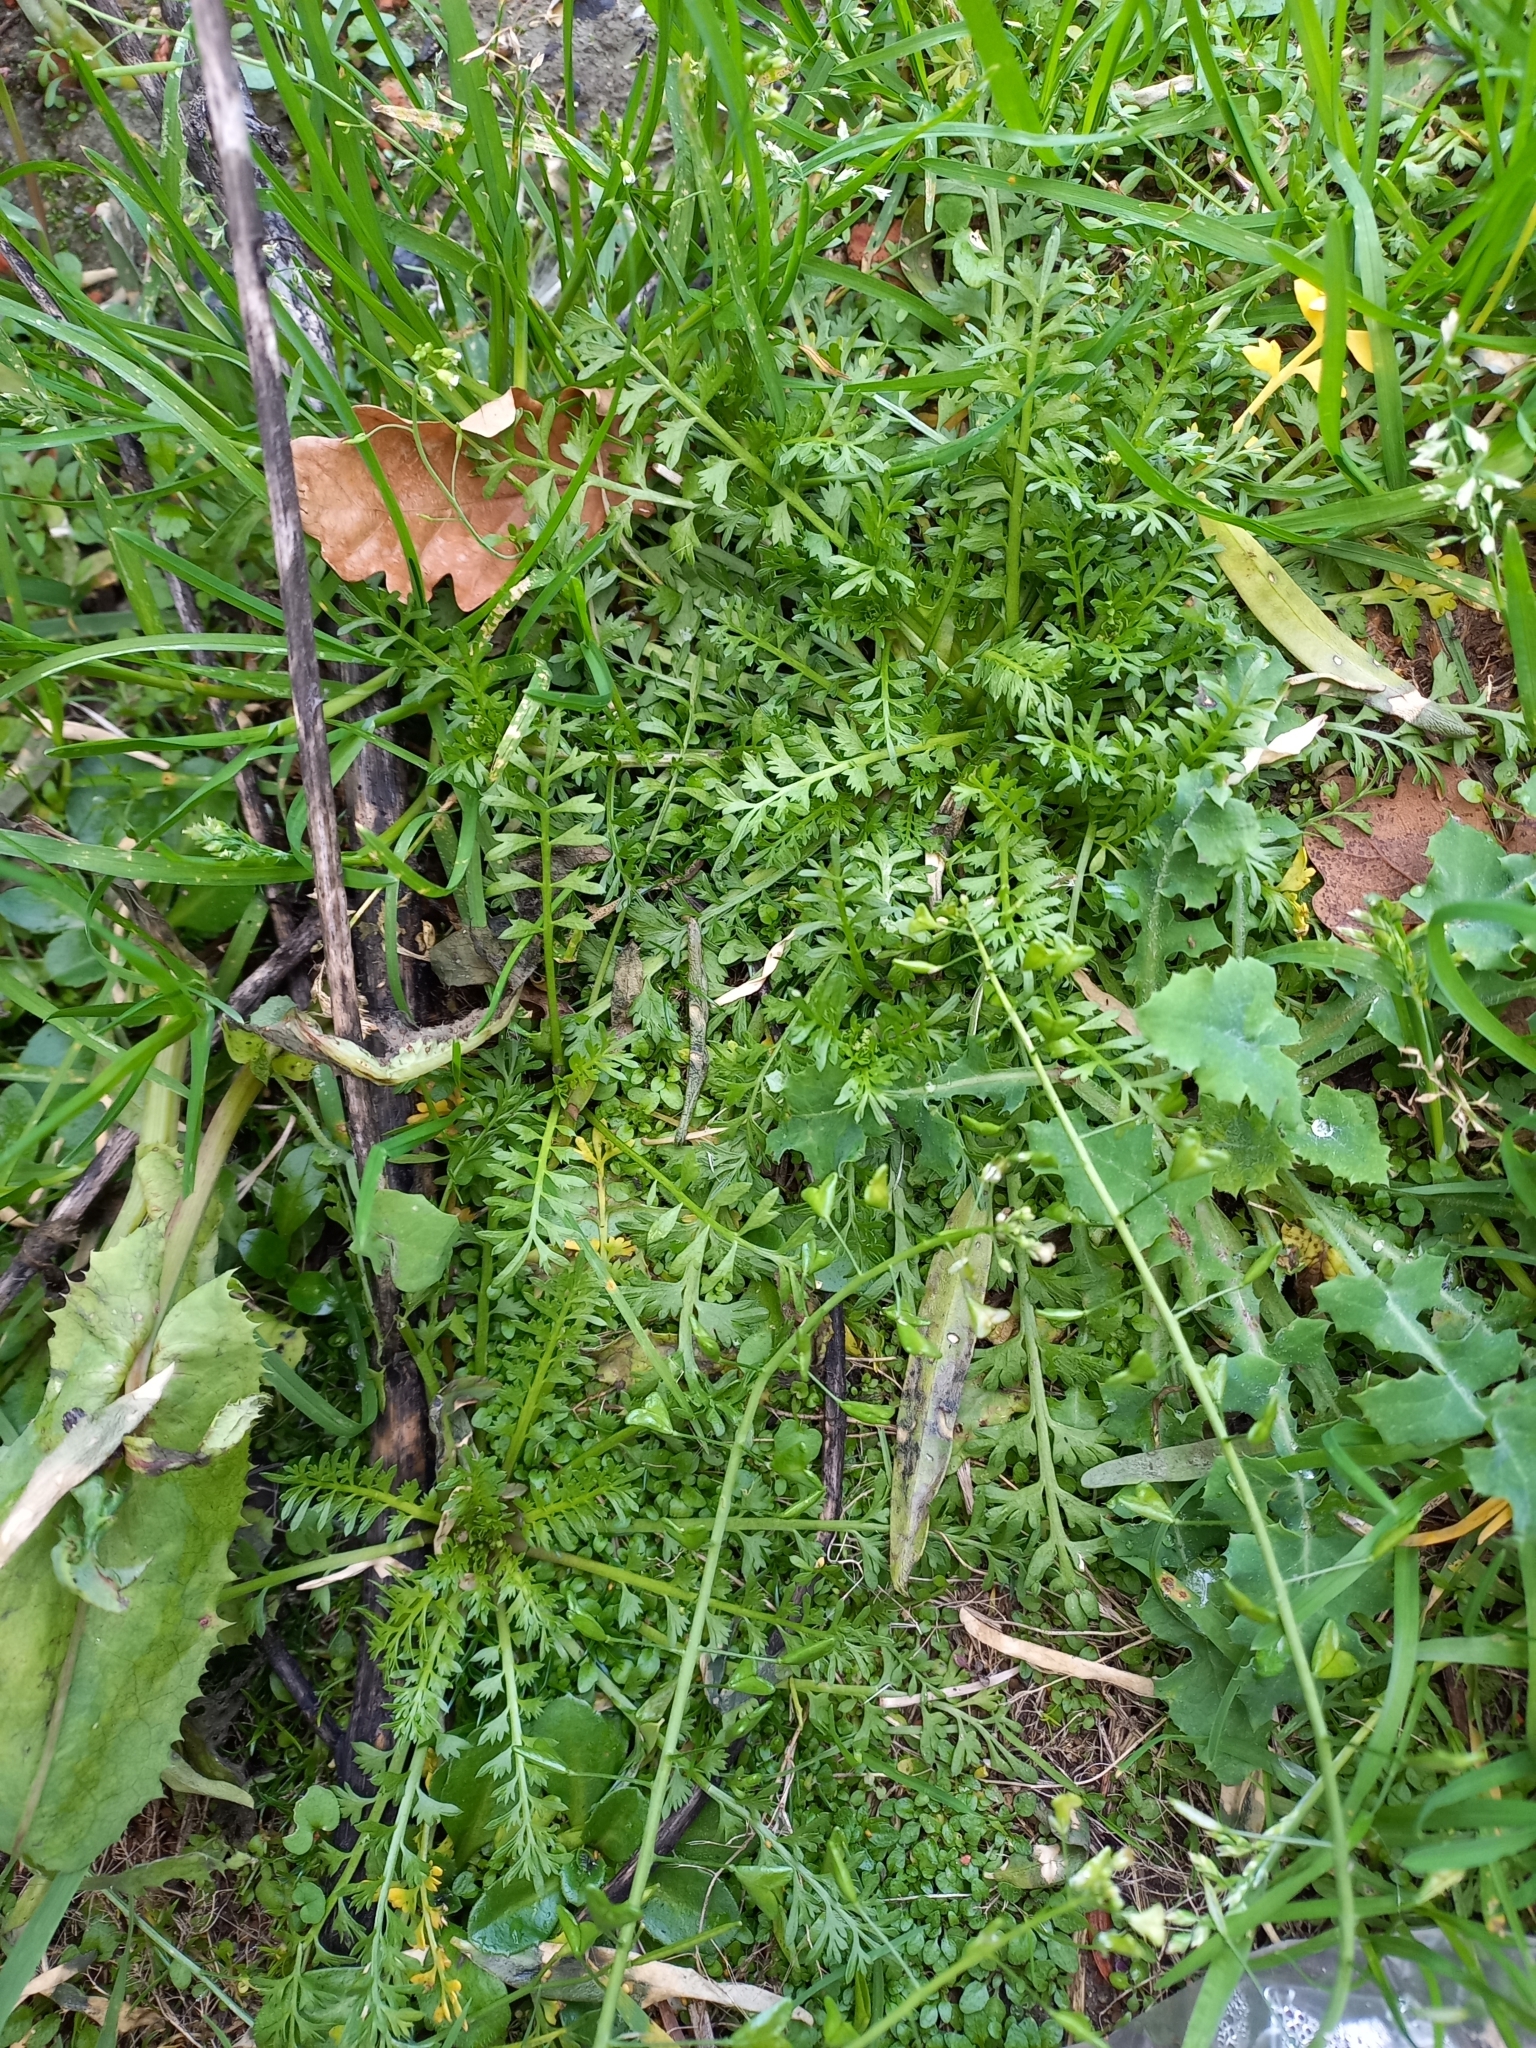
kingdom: Plantae
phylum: Tracheophyta
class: Magnoliopsida
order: Brassicales
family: Brassicaceae
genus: Capsella
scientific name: Capsella bursa-pastoris
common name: Shepherd's purse
